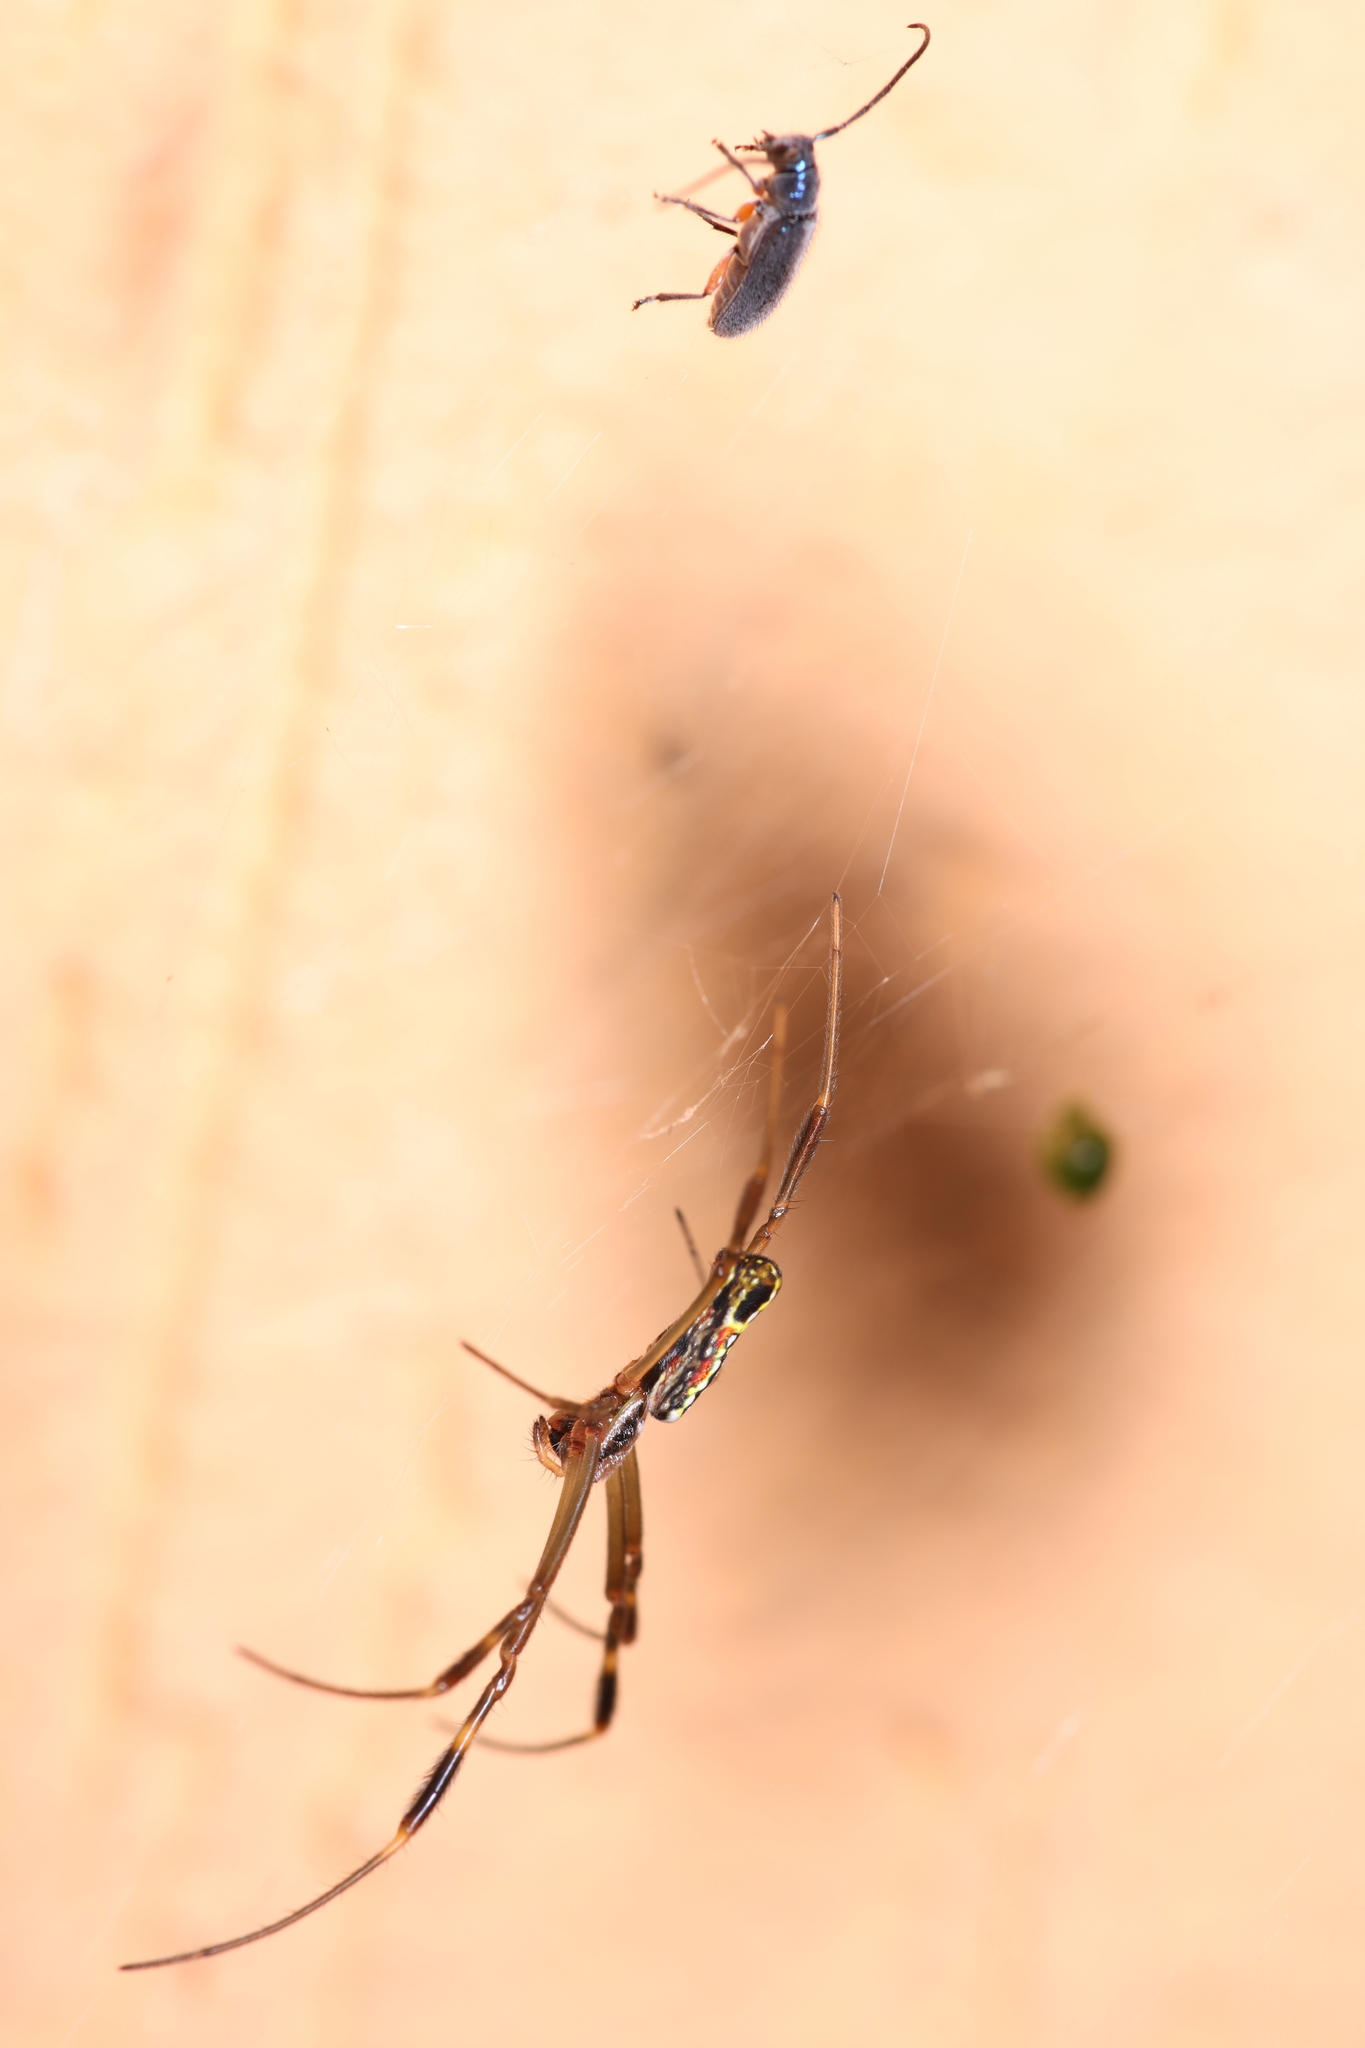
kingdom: Animalia
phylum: Arthropoda
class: Arachnida
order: Araneae
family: Araneidae
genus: Trichonephila
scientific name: Trichonephila clavipes
